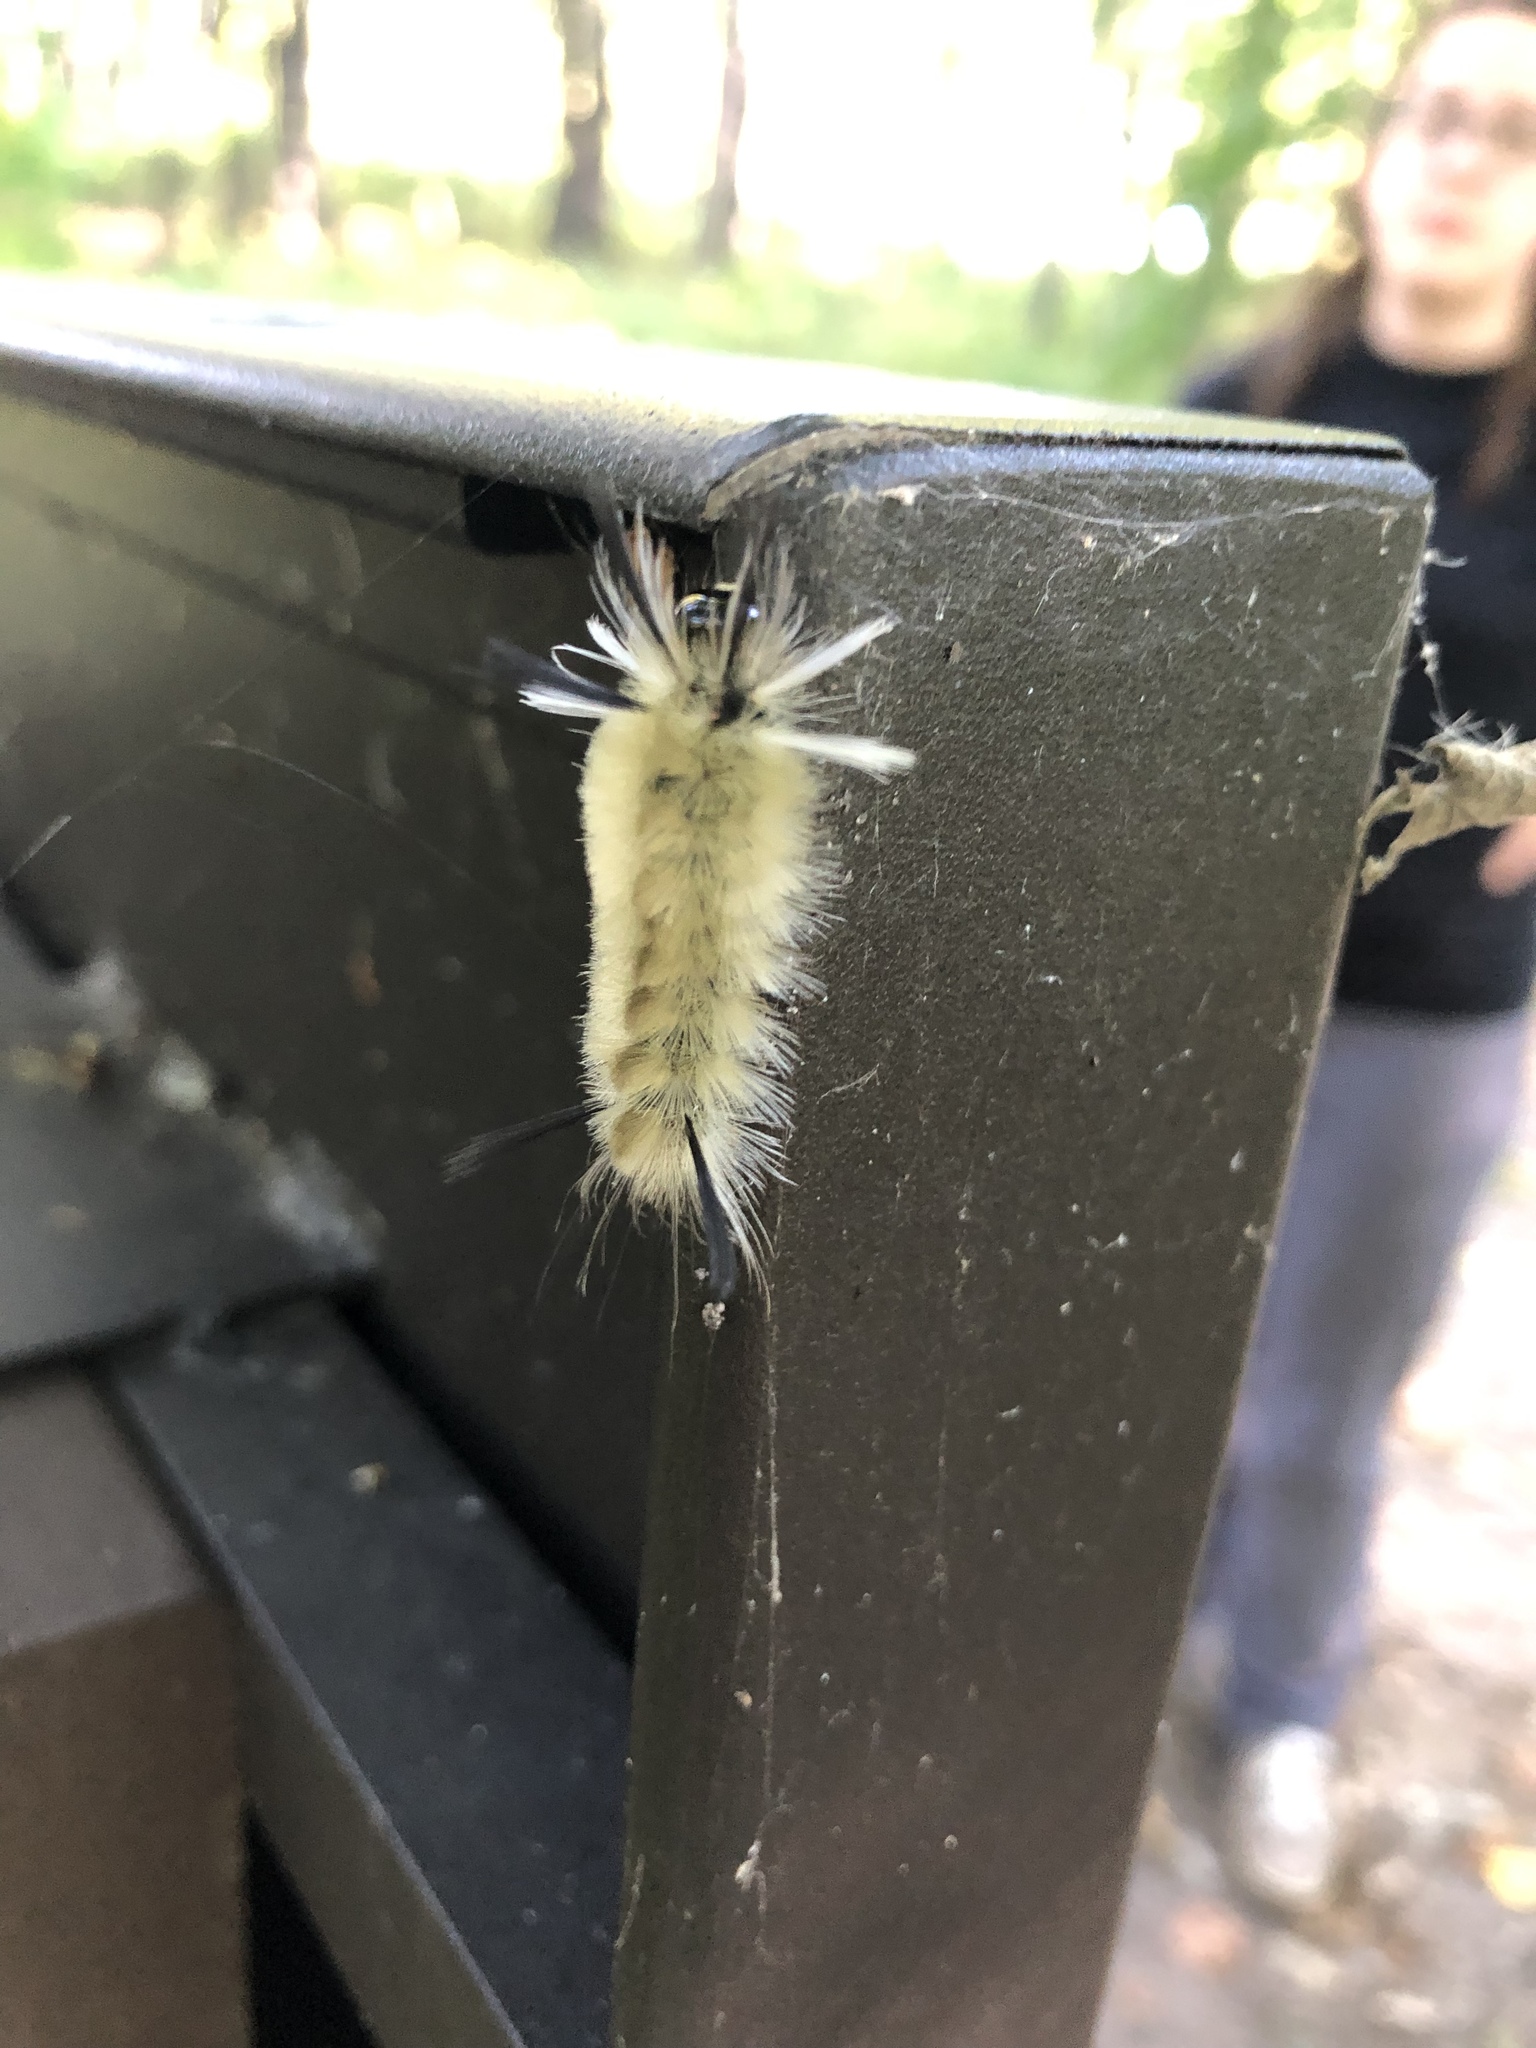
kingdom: Animalia
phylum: Arthropoda
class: Insecta
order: Lepidoptera
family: Erebidae
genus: Halysidota
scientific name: Halysidota tessellaris
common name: Banded tussock moth
